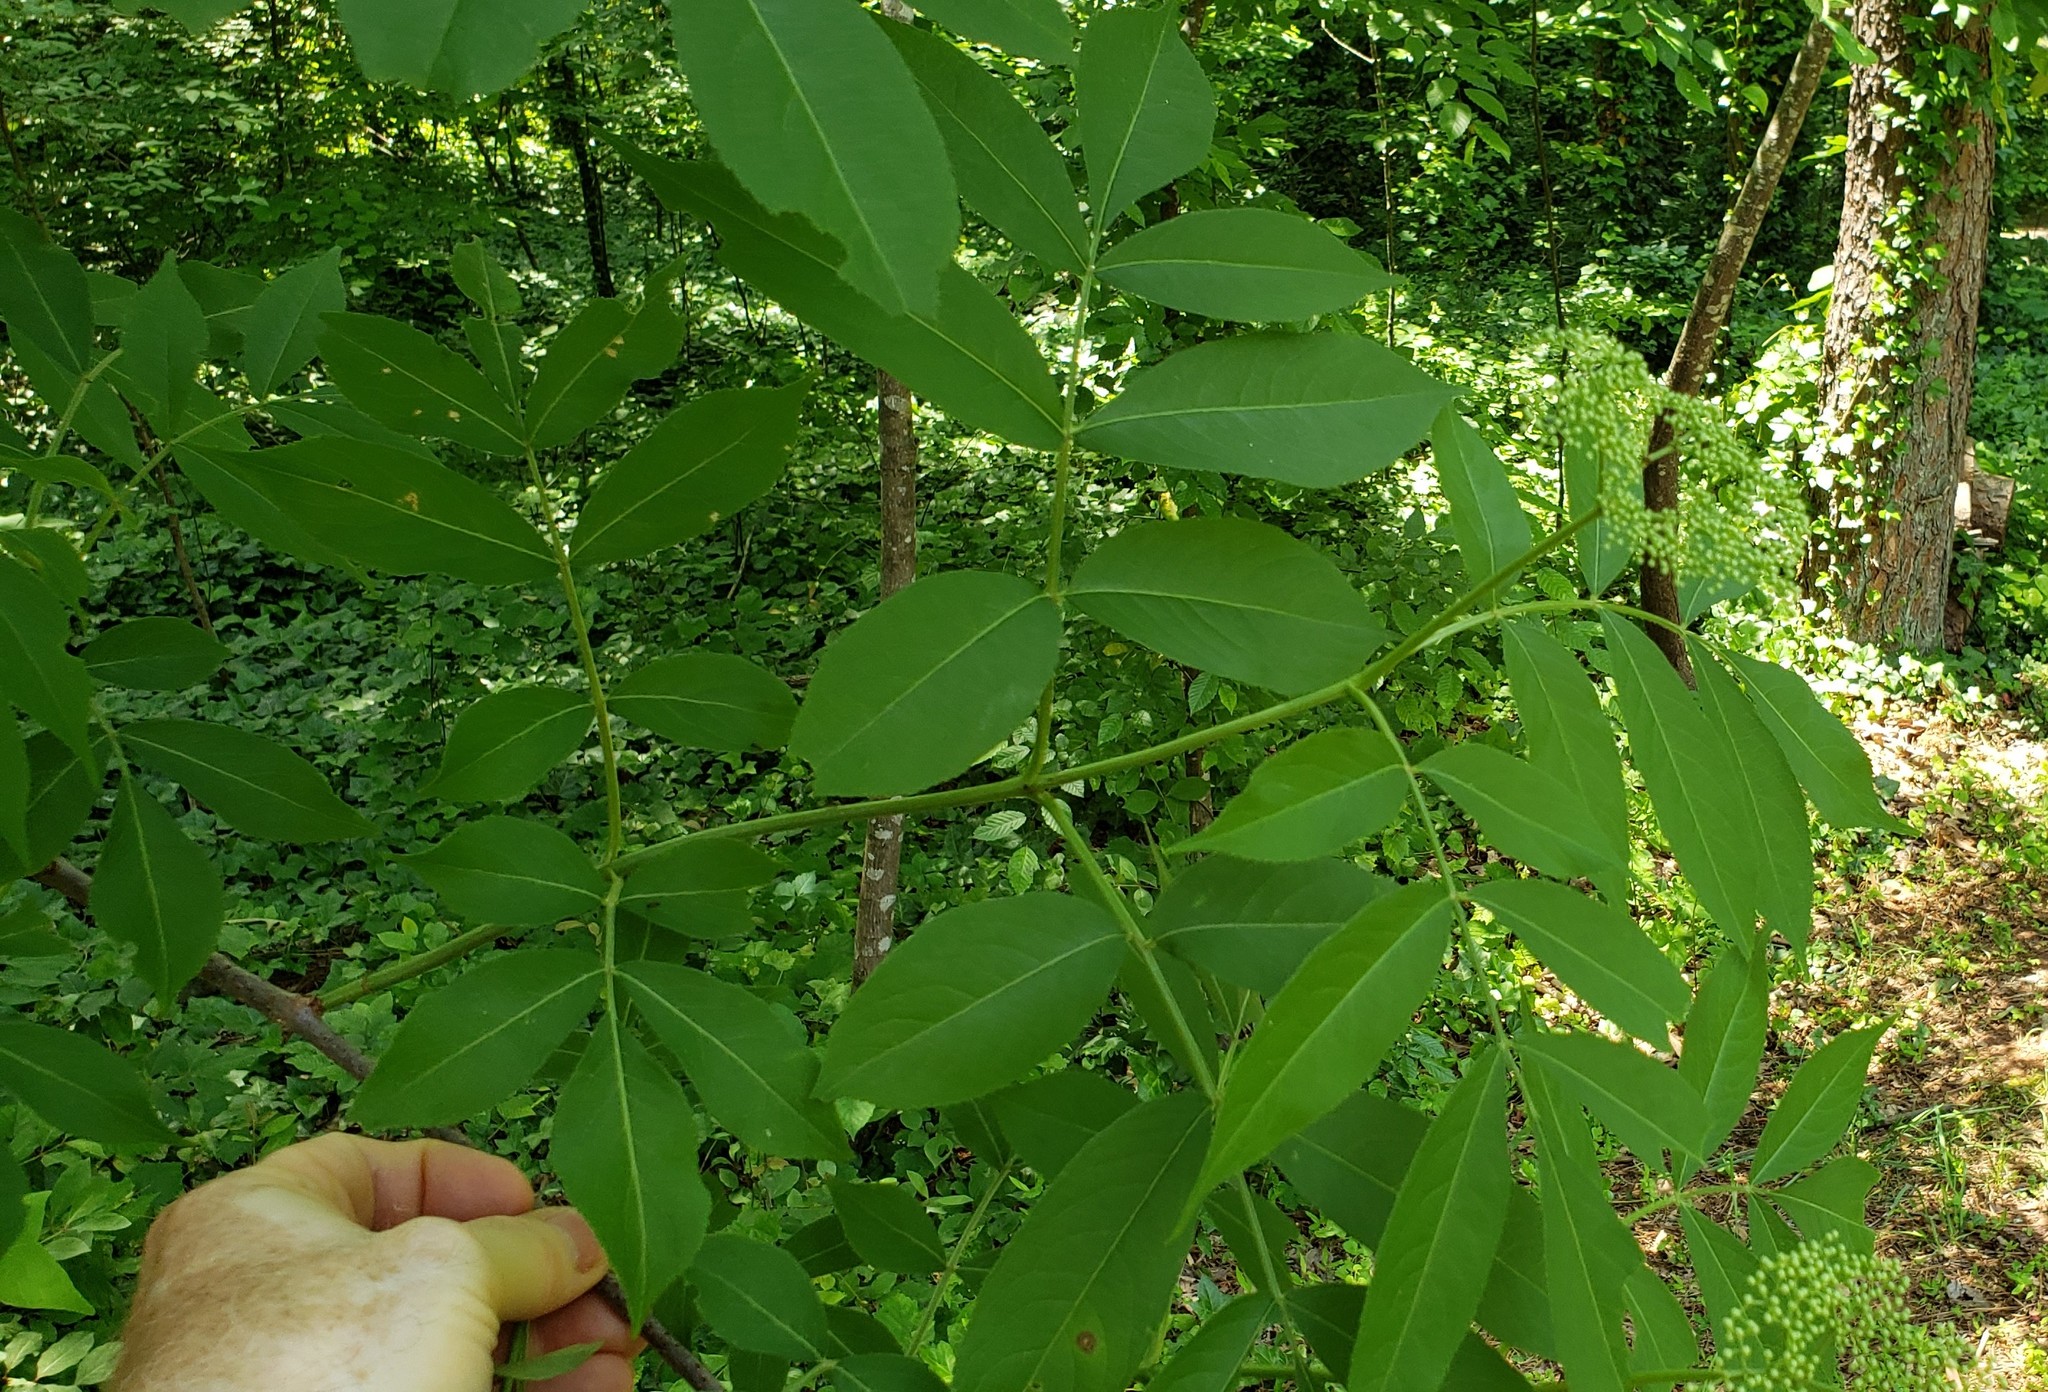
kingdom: Plantae
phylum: Tracheophyta
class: Magnoliopsida
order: Dipsacales
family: Viburnaceae
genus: Sambucus
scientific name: Sambucus canadensis
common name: American elder
